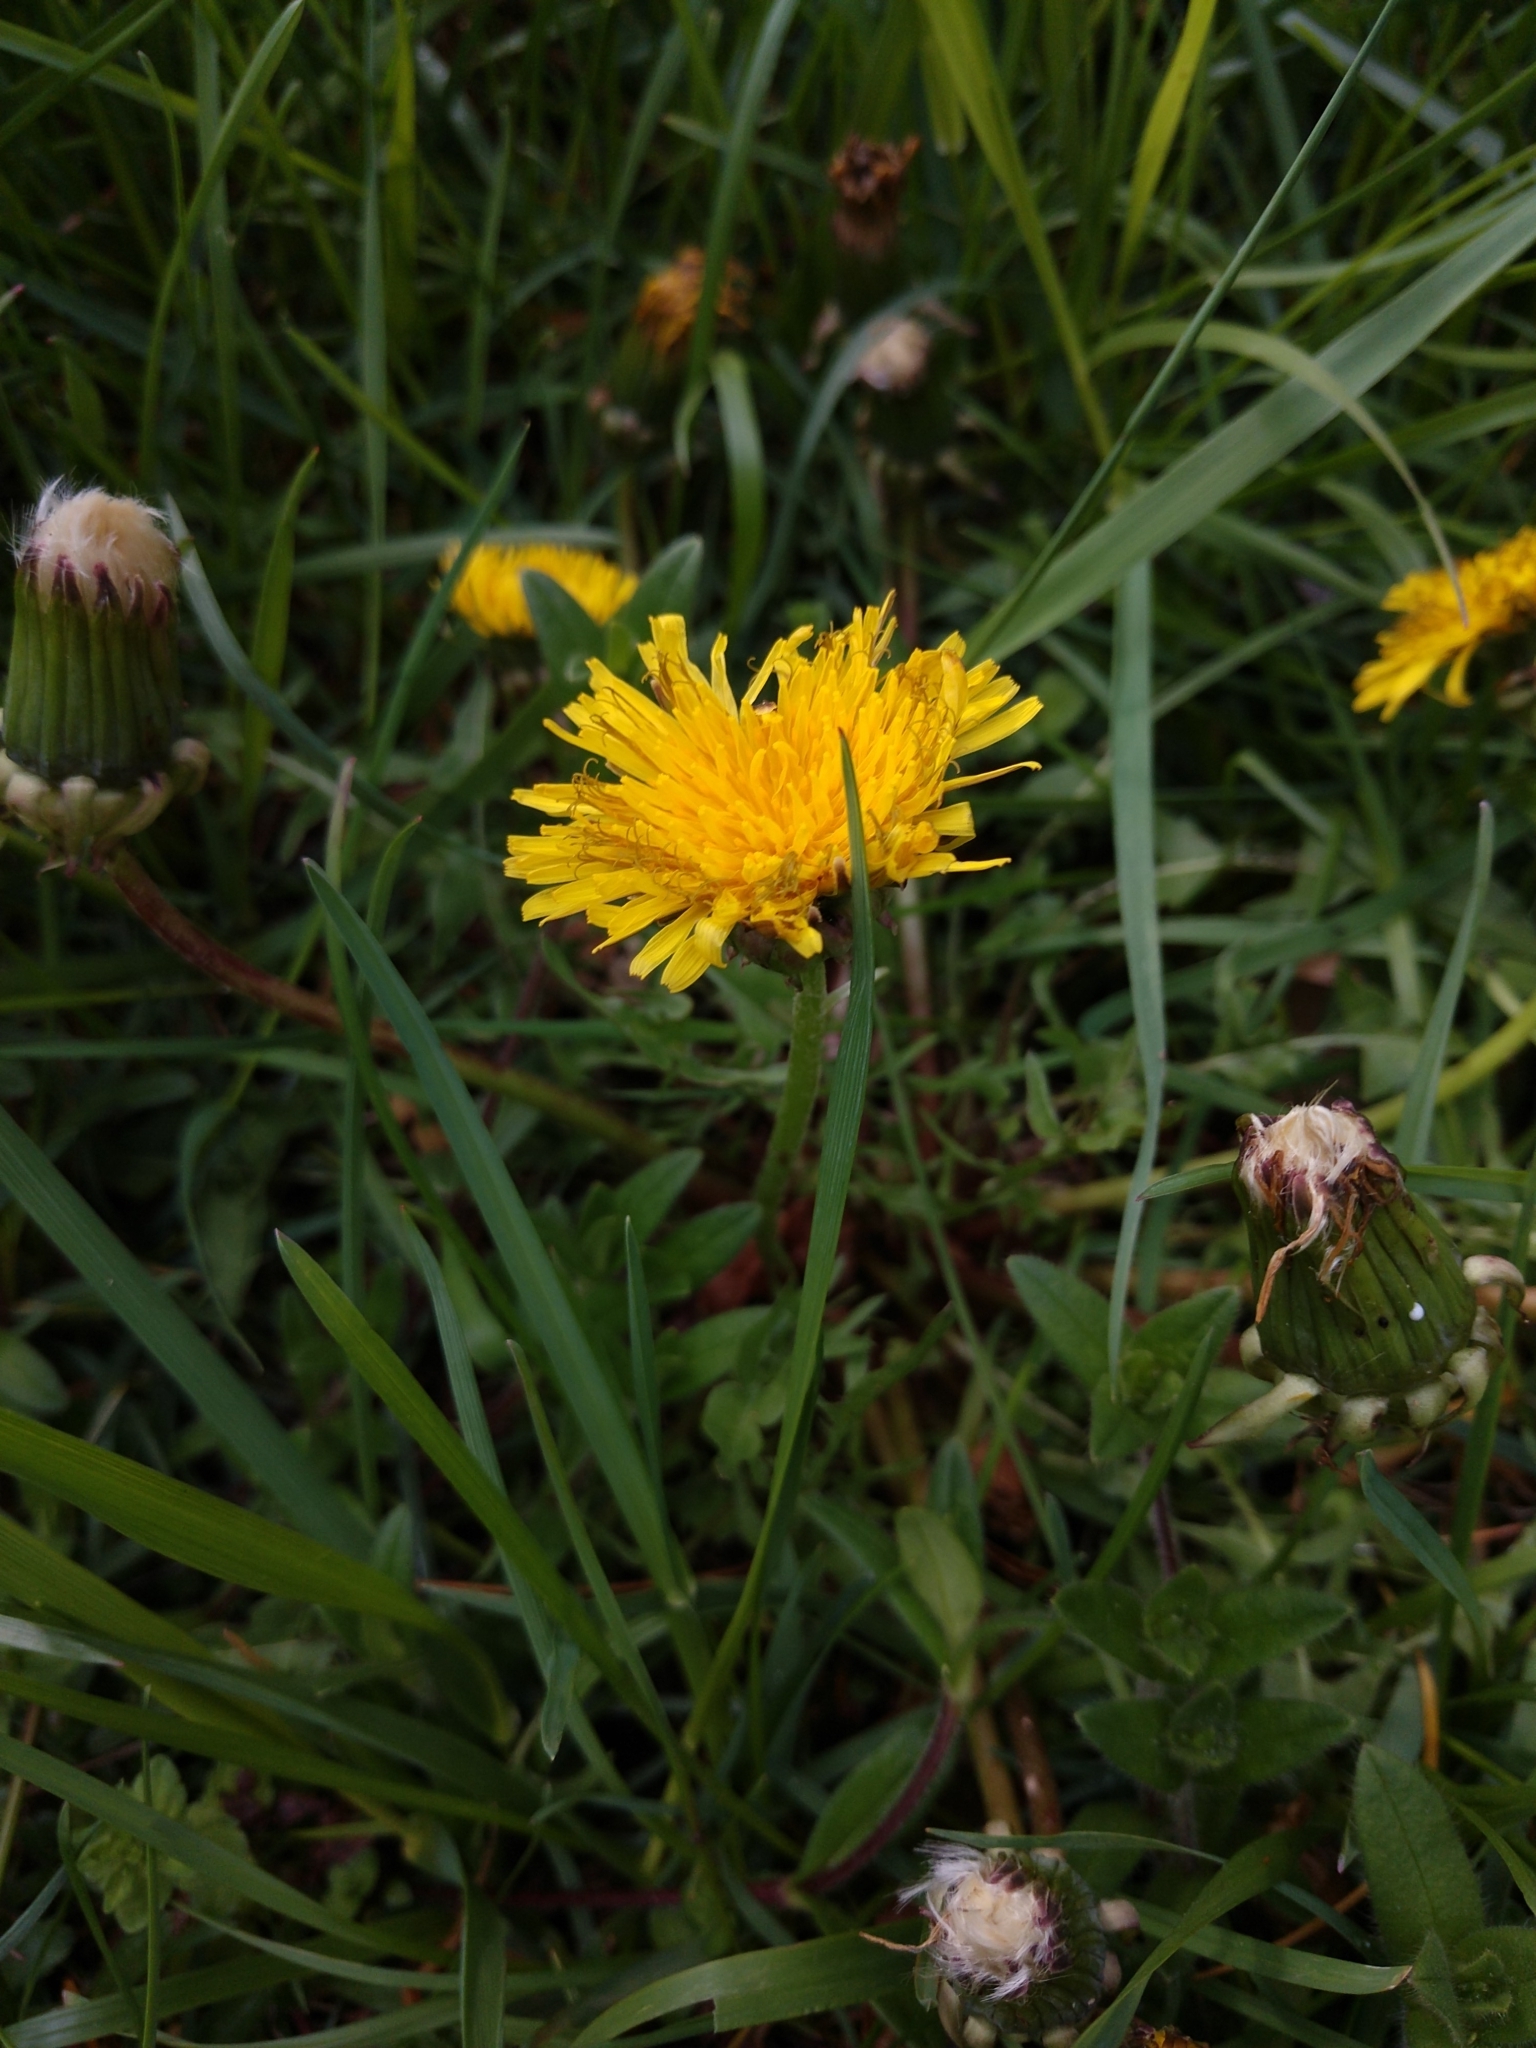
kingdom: Plantae
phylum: Tracheophyta
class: Magnoliopsida
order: Asterales
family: Asteraceae
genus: Taraxacum
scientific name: Taraxacum officinale
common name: Common dandelion
